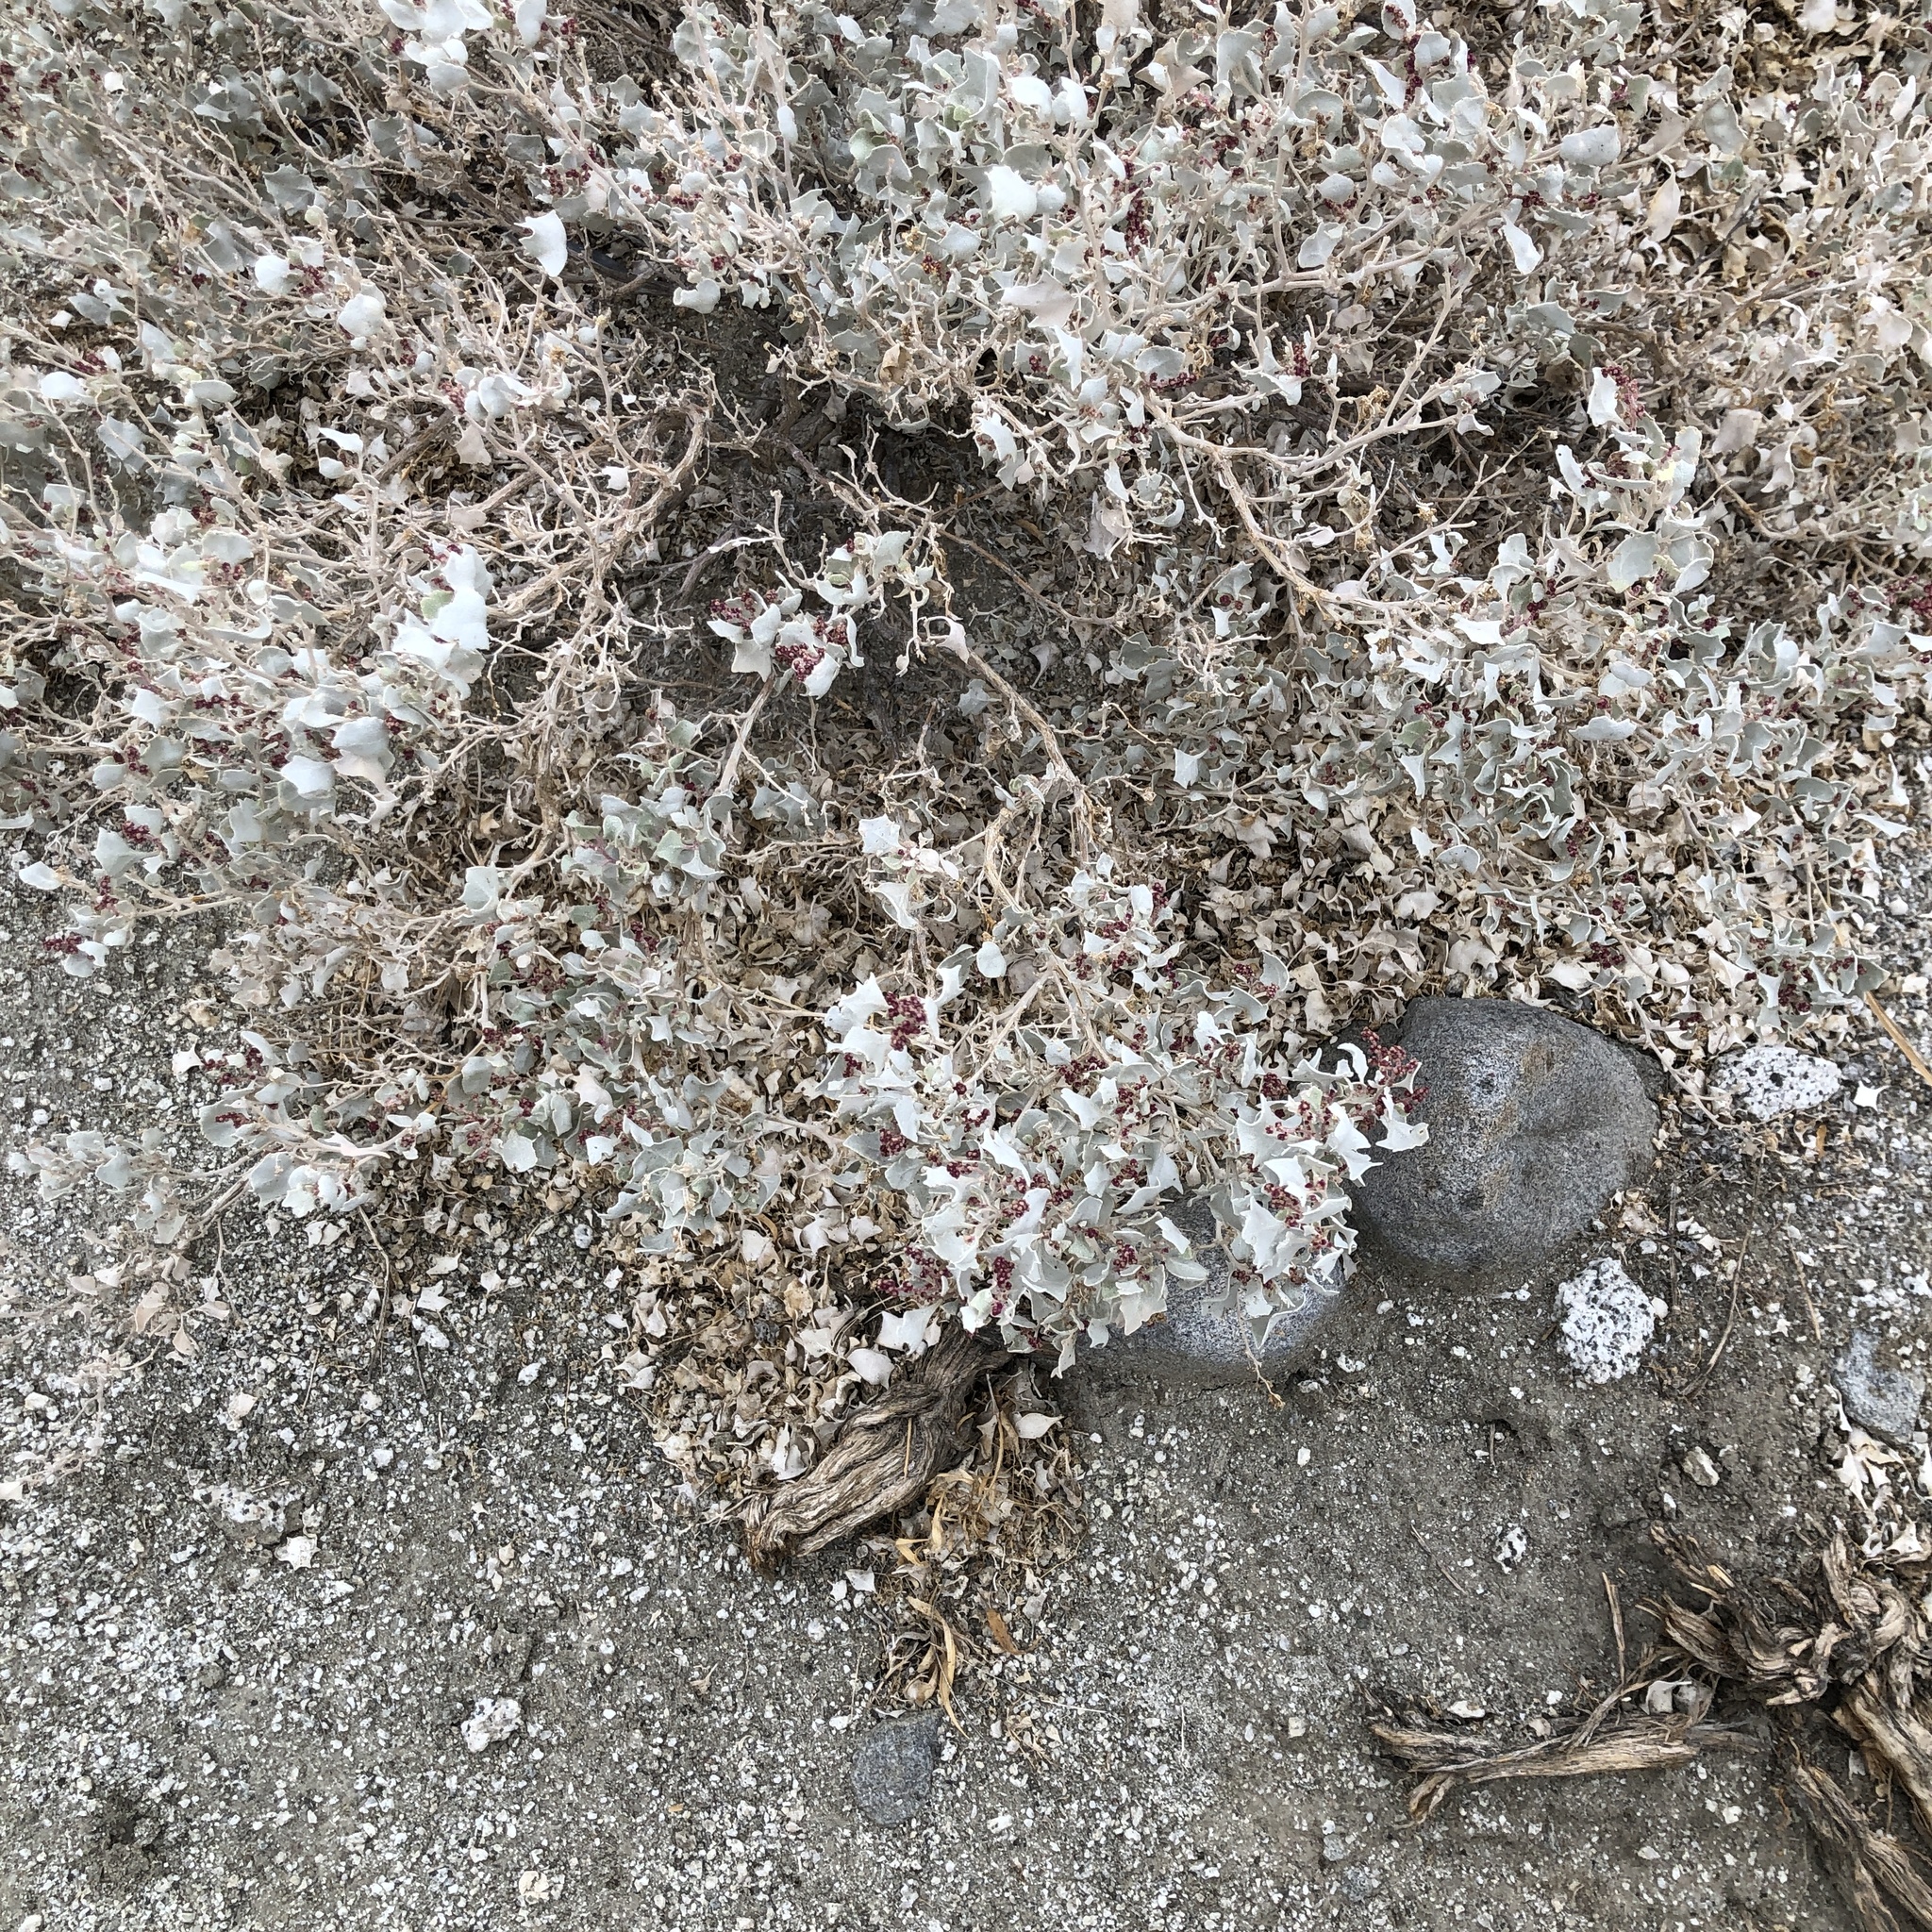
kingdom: Plantae
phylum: Tracheophyta
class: Magnoliopsida
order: Caryophyllales
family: Amaranthaceae
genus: Atriplex
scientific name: Atriplex hymenelytra
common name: Desert-holly
